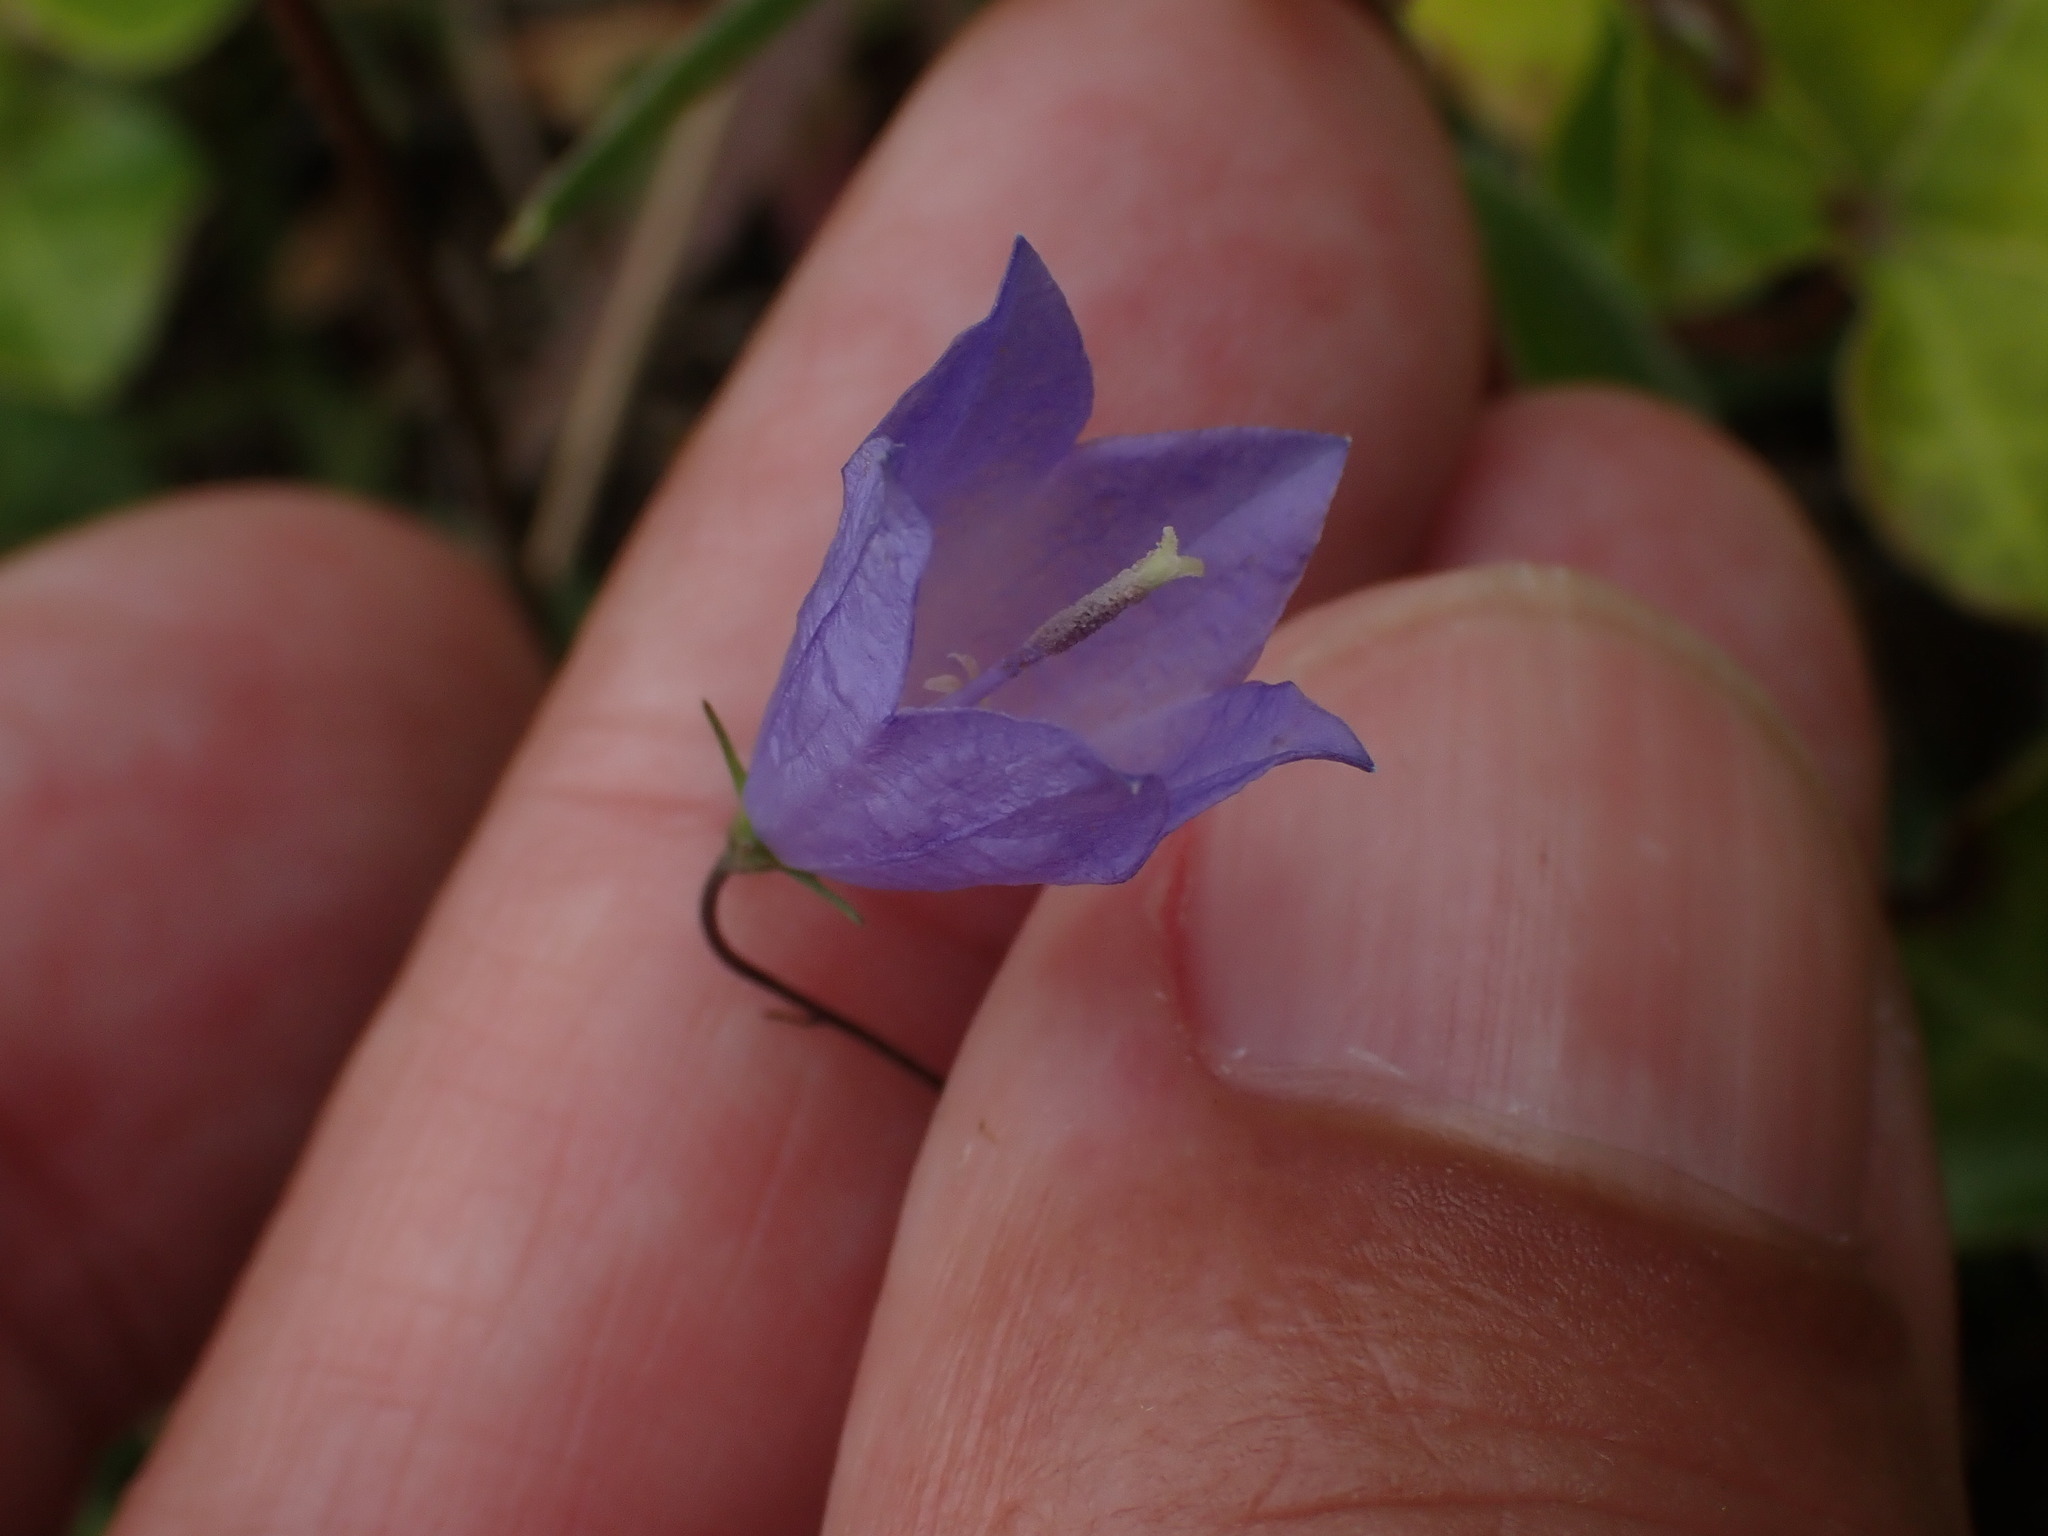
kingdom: Plantae
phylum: Tracheophyta
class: Magnoliopsida
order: Asterales
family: Campanulaceae
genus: Campanula
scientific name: Campanula rotundifolia
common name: Harebell
